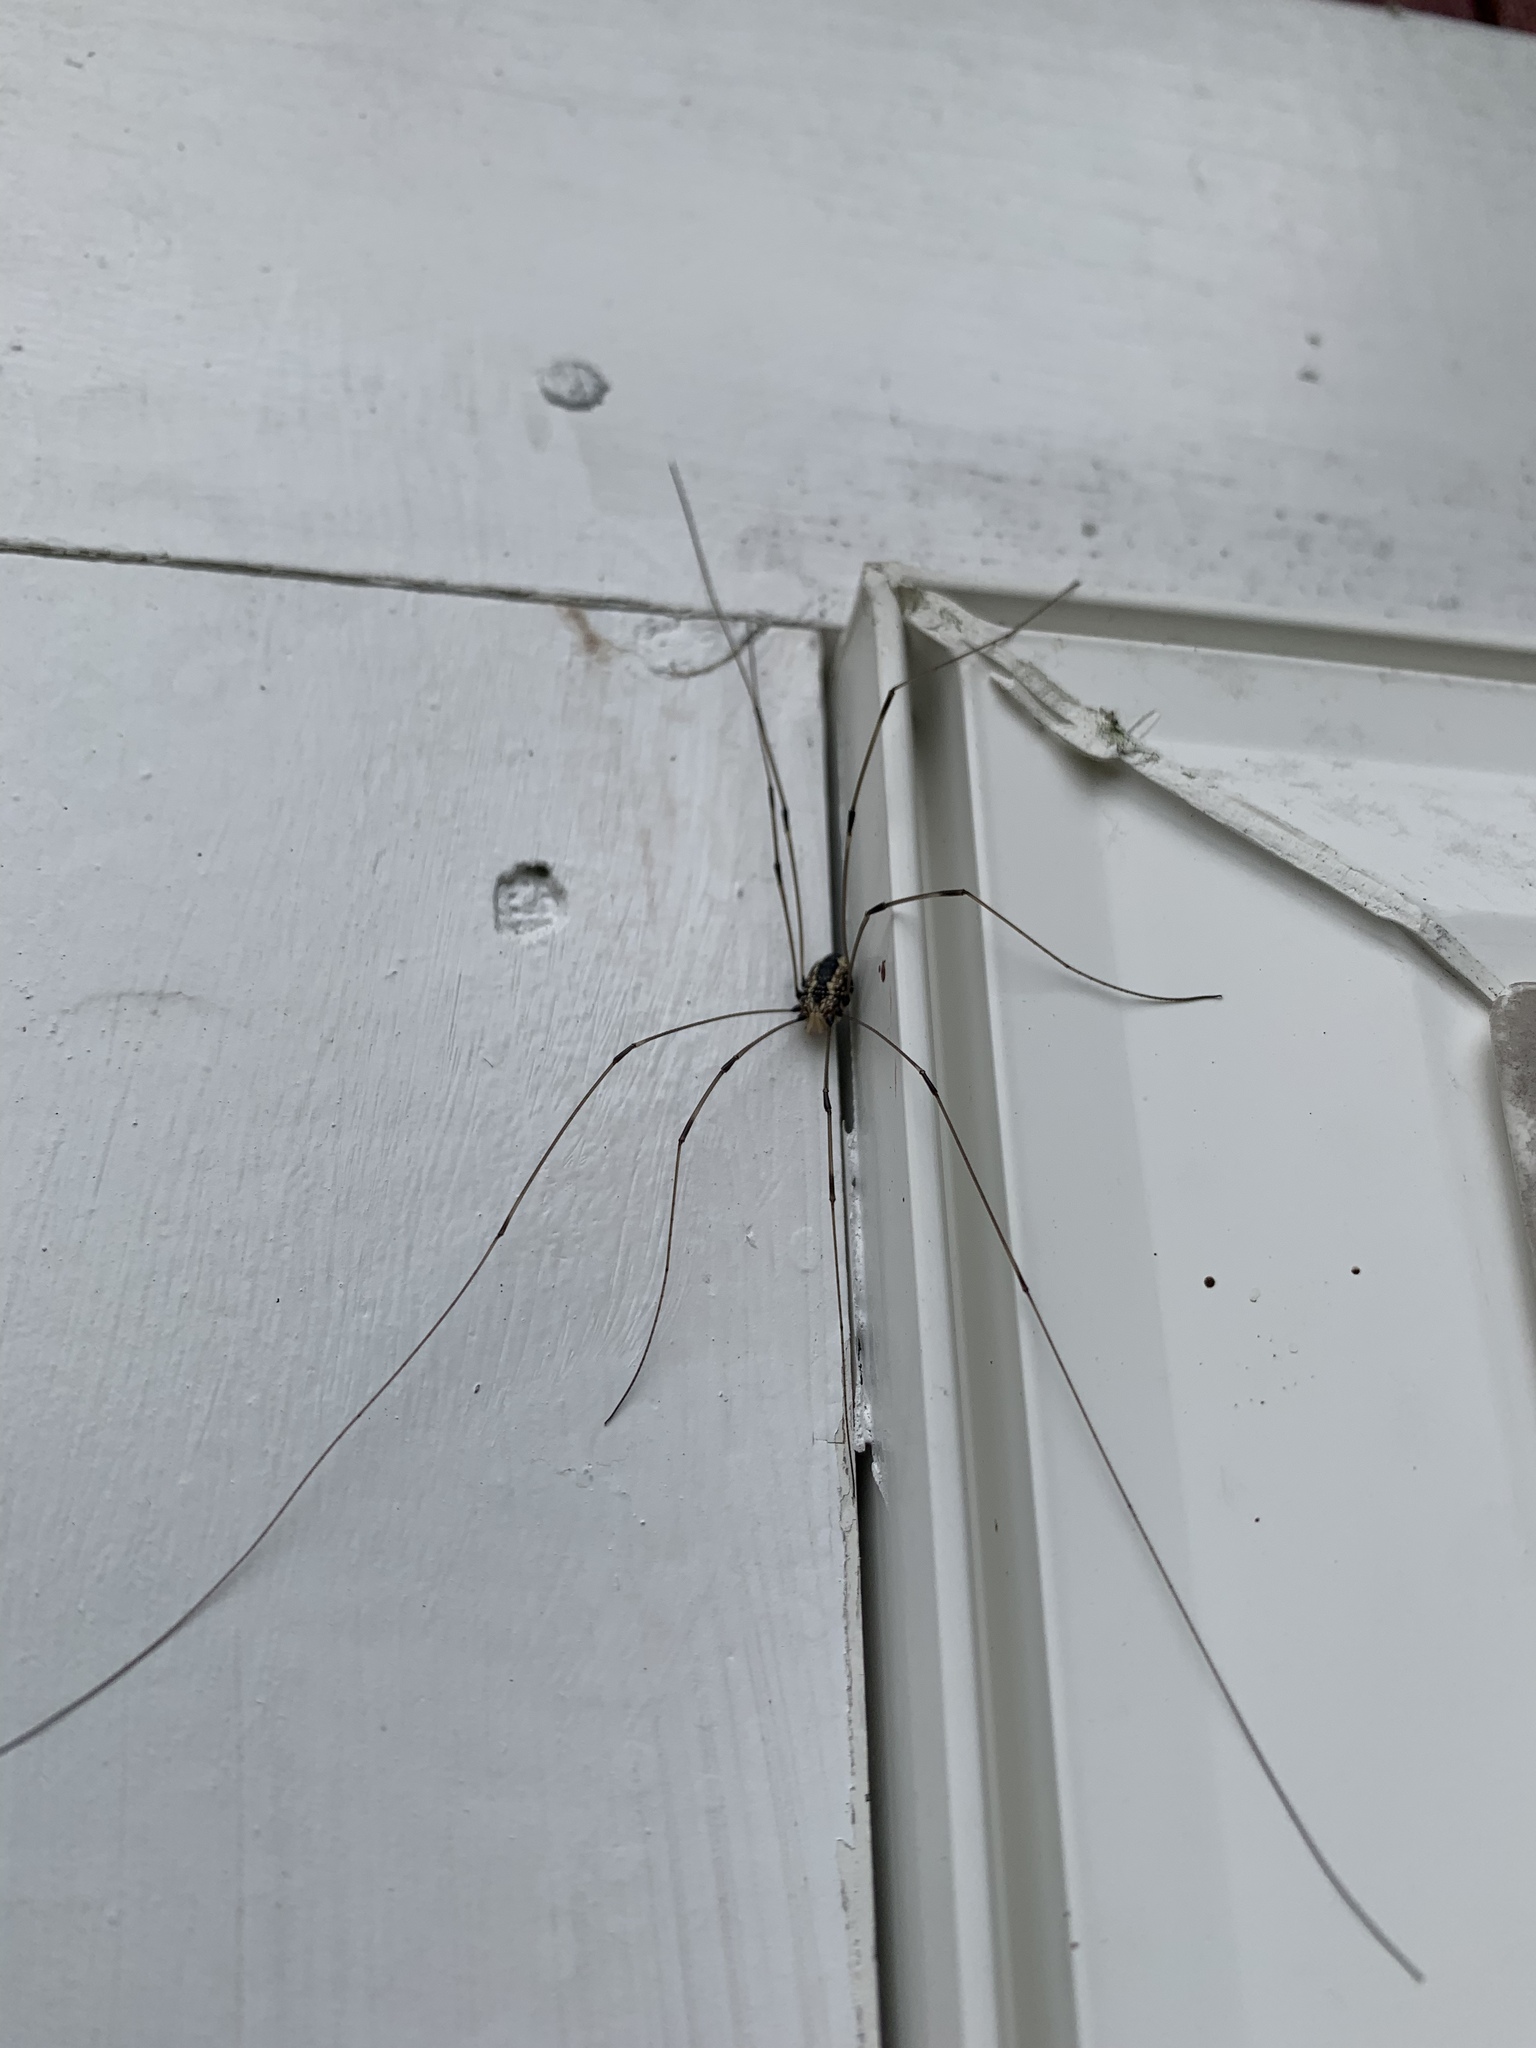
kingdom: Animalia
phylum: Arthropoda
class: Arachnida
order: Opiliones
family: Sclerosomatidae
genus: Leiobunum
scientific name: Leiobunum vittatum
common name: Eastern harvestman
